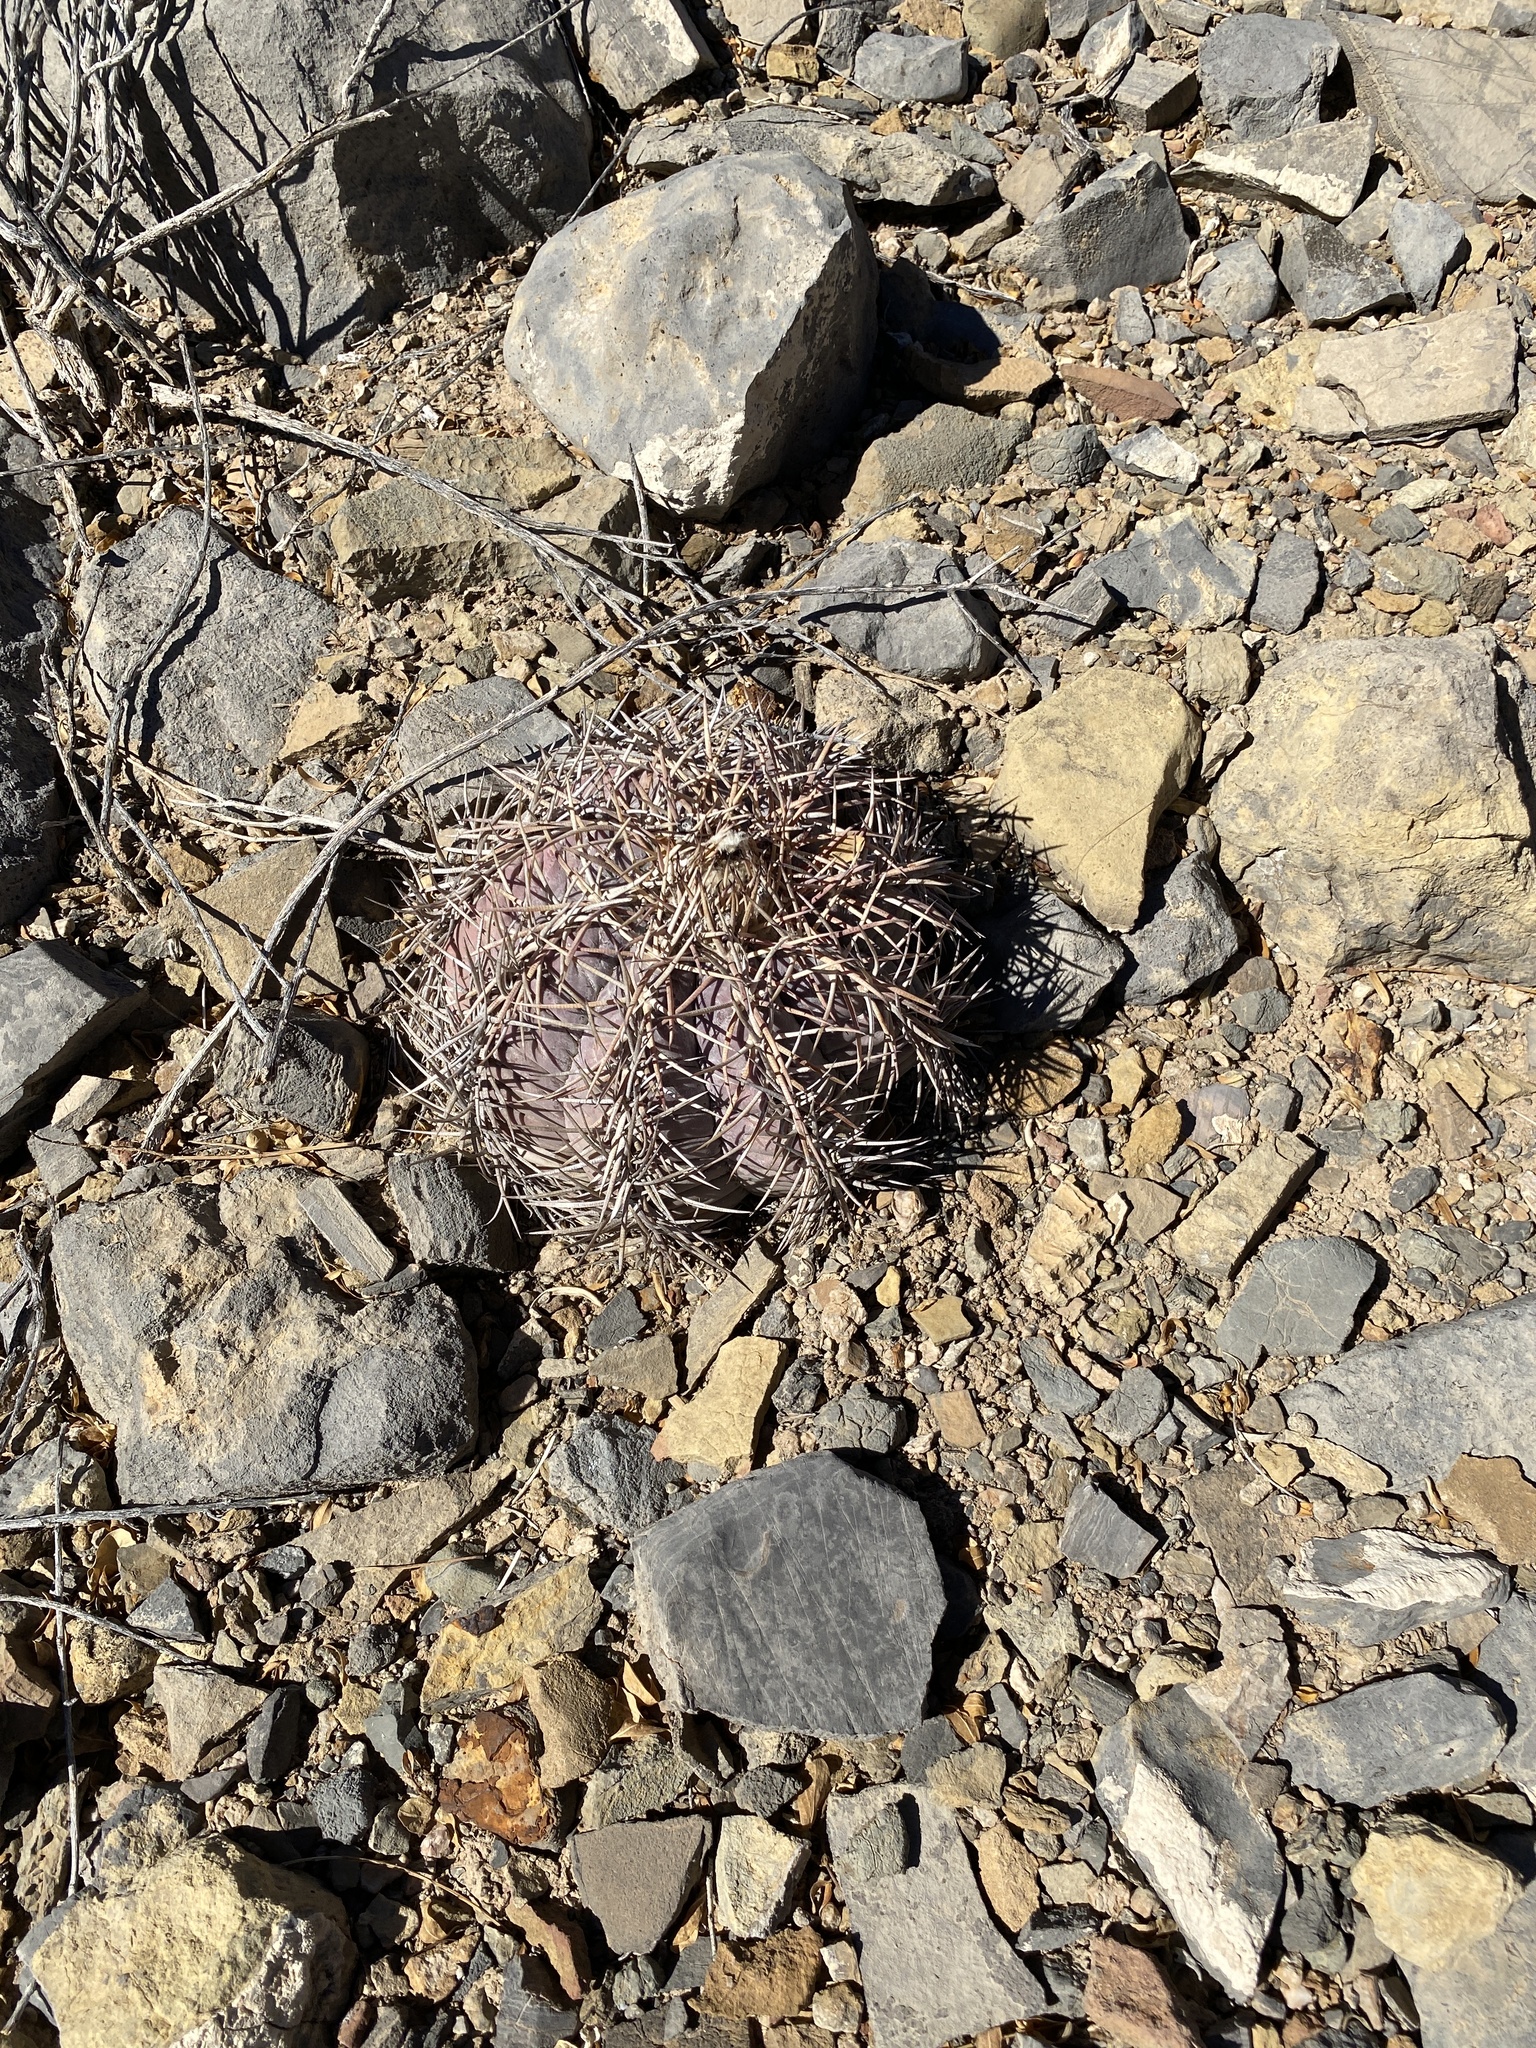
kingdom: Plantae
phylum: Tracheophyta
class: Magnoliopsida
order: Caryophyllales
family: Cactaceae
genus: Echinocactus
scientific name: Echinocactus horizonthalonius
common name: Devilshead
